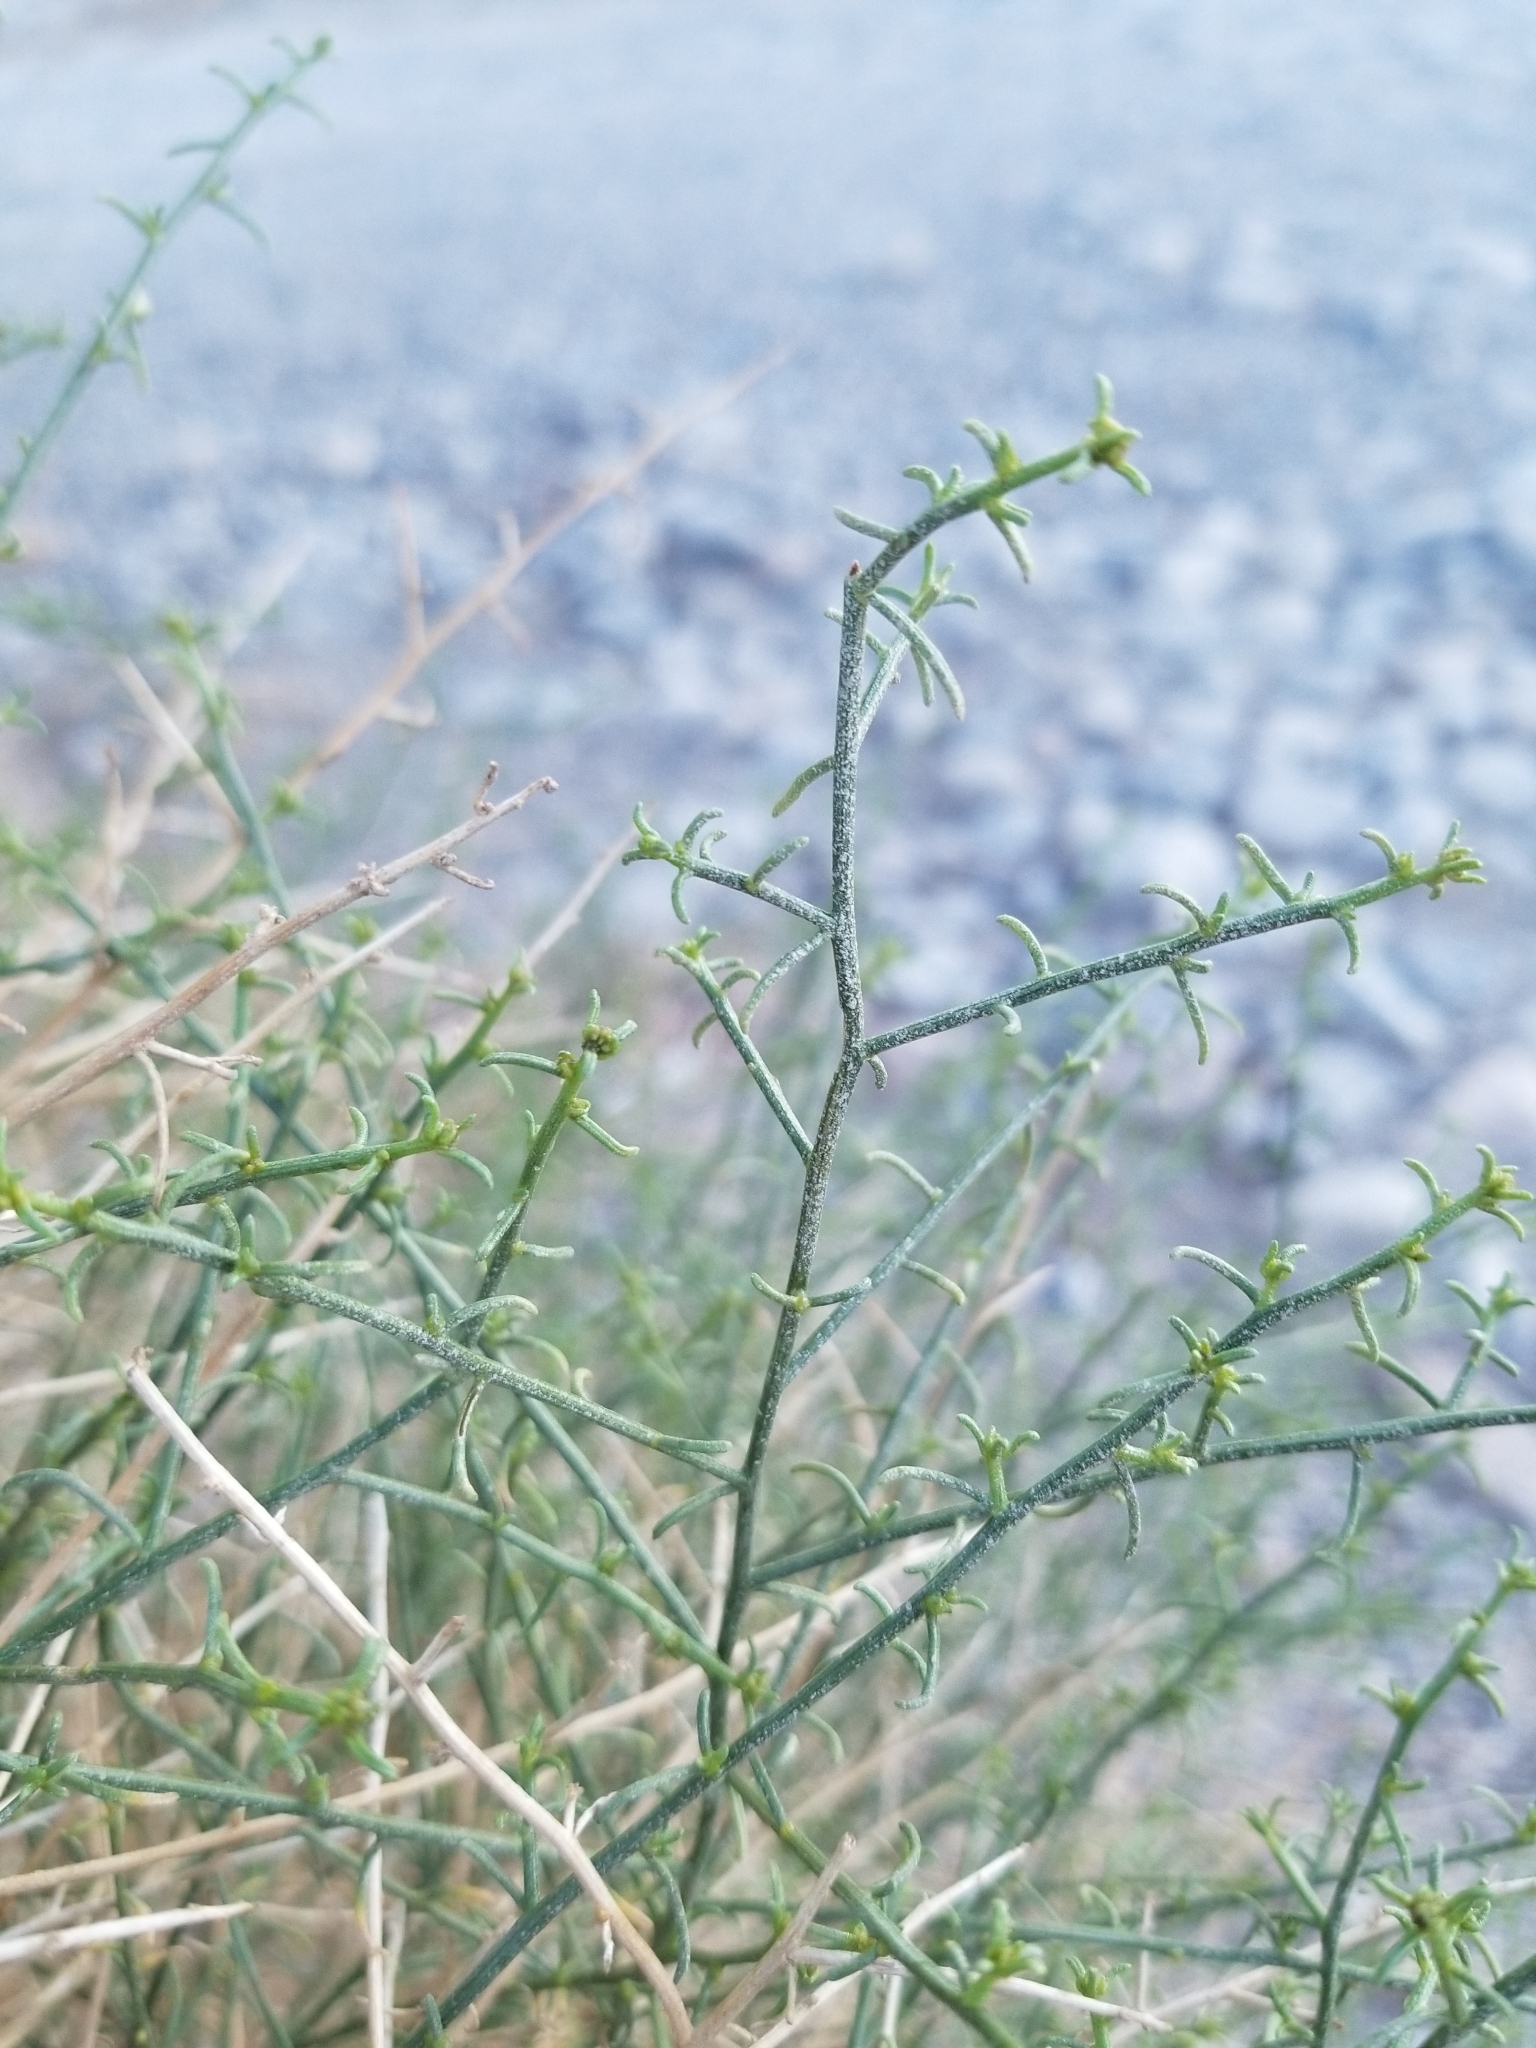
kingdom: Plantae
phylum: Tracheophyta
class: Magnoliopsida
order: Asterales
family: Asteraceae
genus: Ambrosia
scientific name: Ambrosia salsola
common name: Burrobrush
